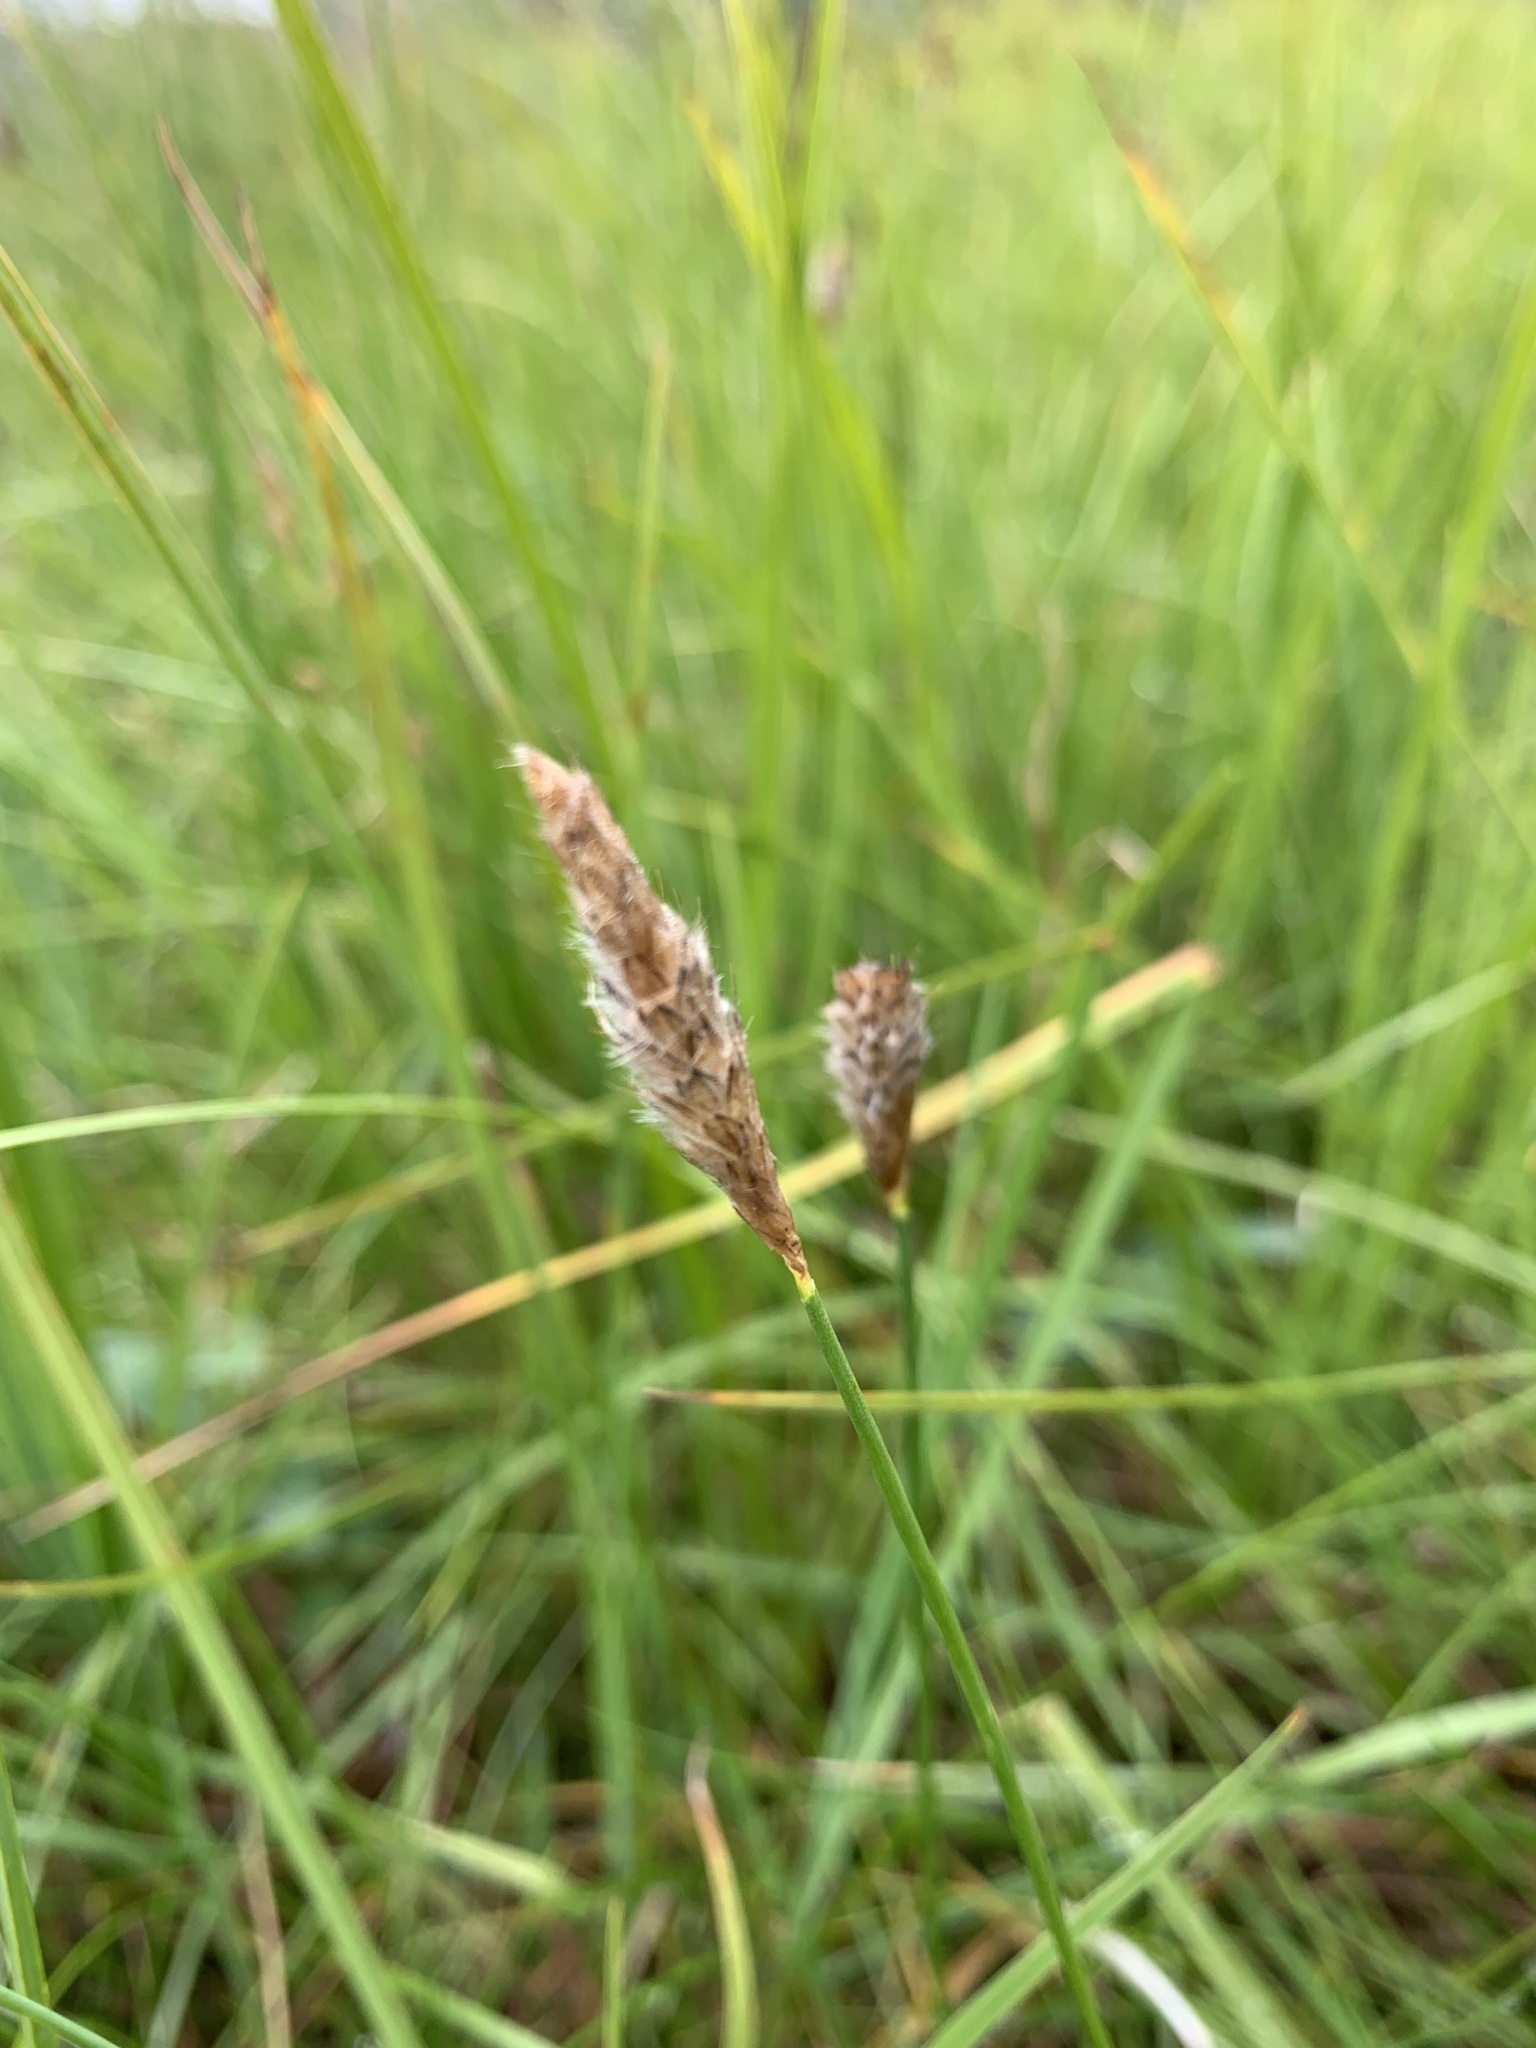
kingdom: Plantae
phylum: Tracheophyta
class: Liliopsida
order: Poales
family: Poaceae
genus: Alopecurus
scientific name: Alopecurus magellanicus
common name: Alpine foxtail
